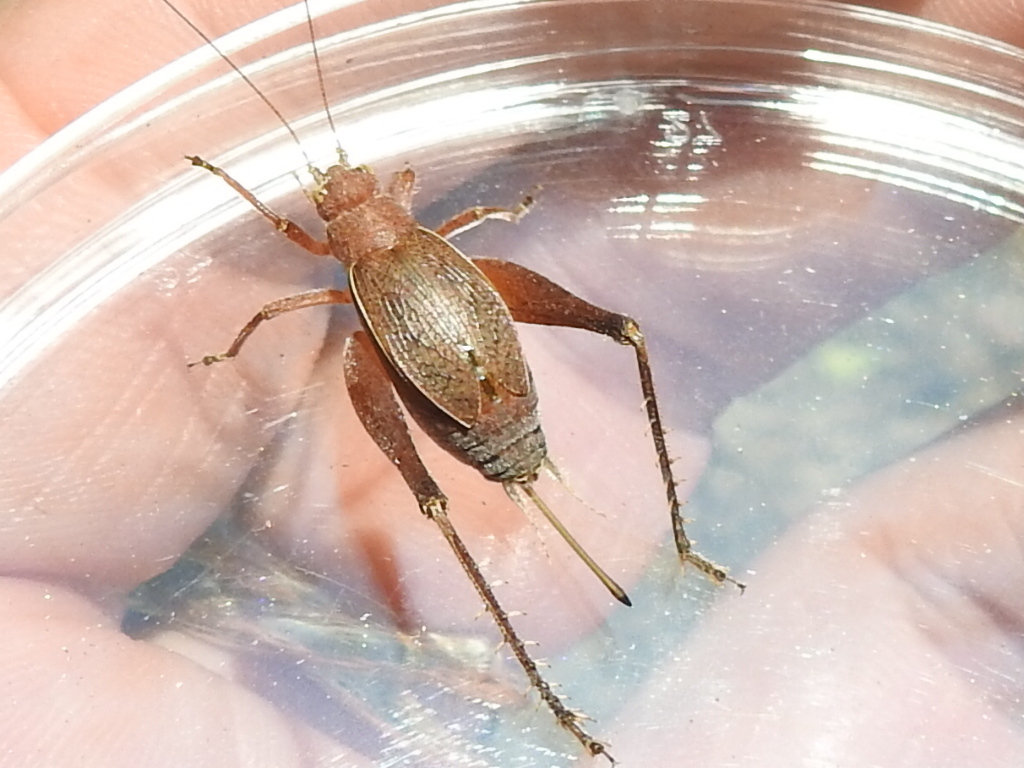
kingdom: Animalia
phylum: Arthropoda
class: Insecta
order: Orthoptera
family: Gryllidae
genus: Hapithus
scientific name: Hapithus agitator
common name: Restless bush cricket
